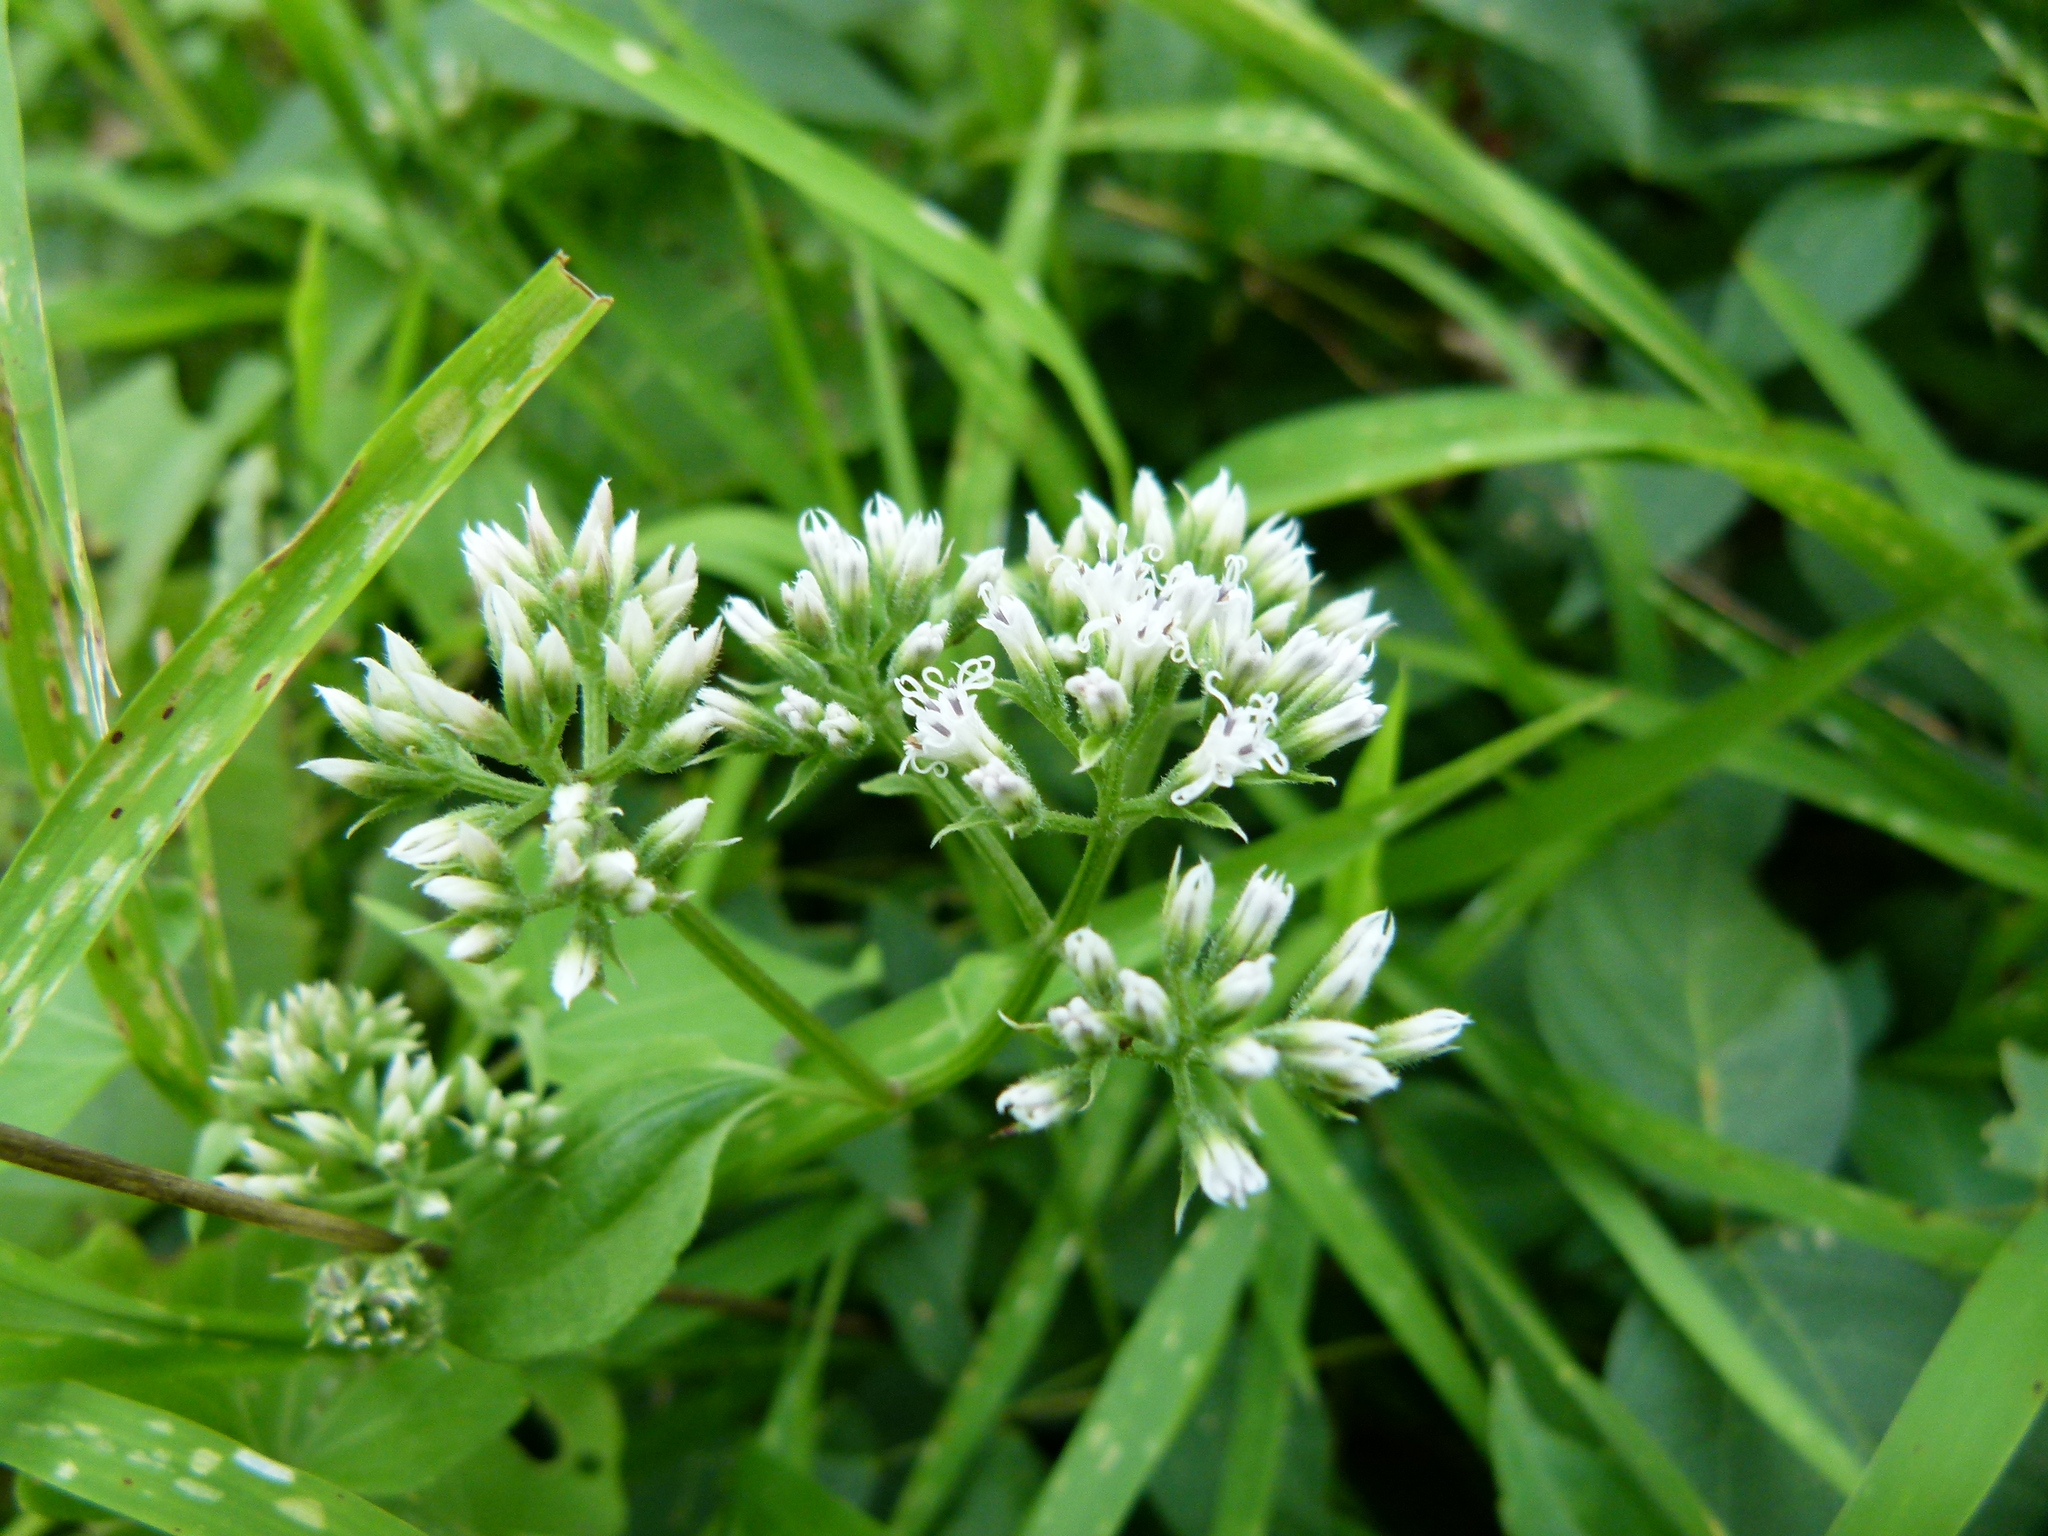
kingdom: Plantae
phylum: Tracheophyta
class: Magnoliopsida
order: Asterales
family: Asteraceae
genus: Mikania
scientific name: Mikania scandens
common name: Climbing hempvine
